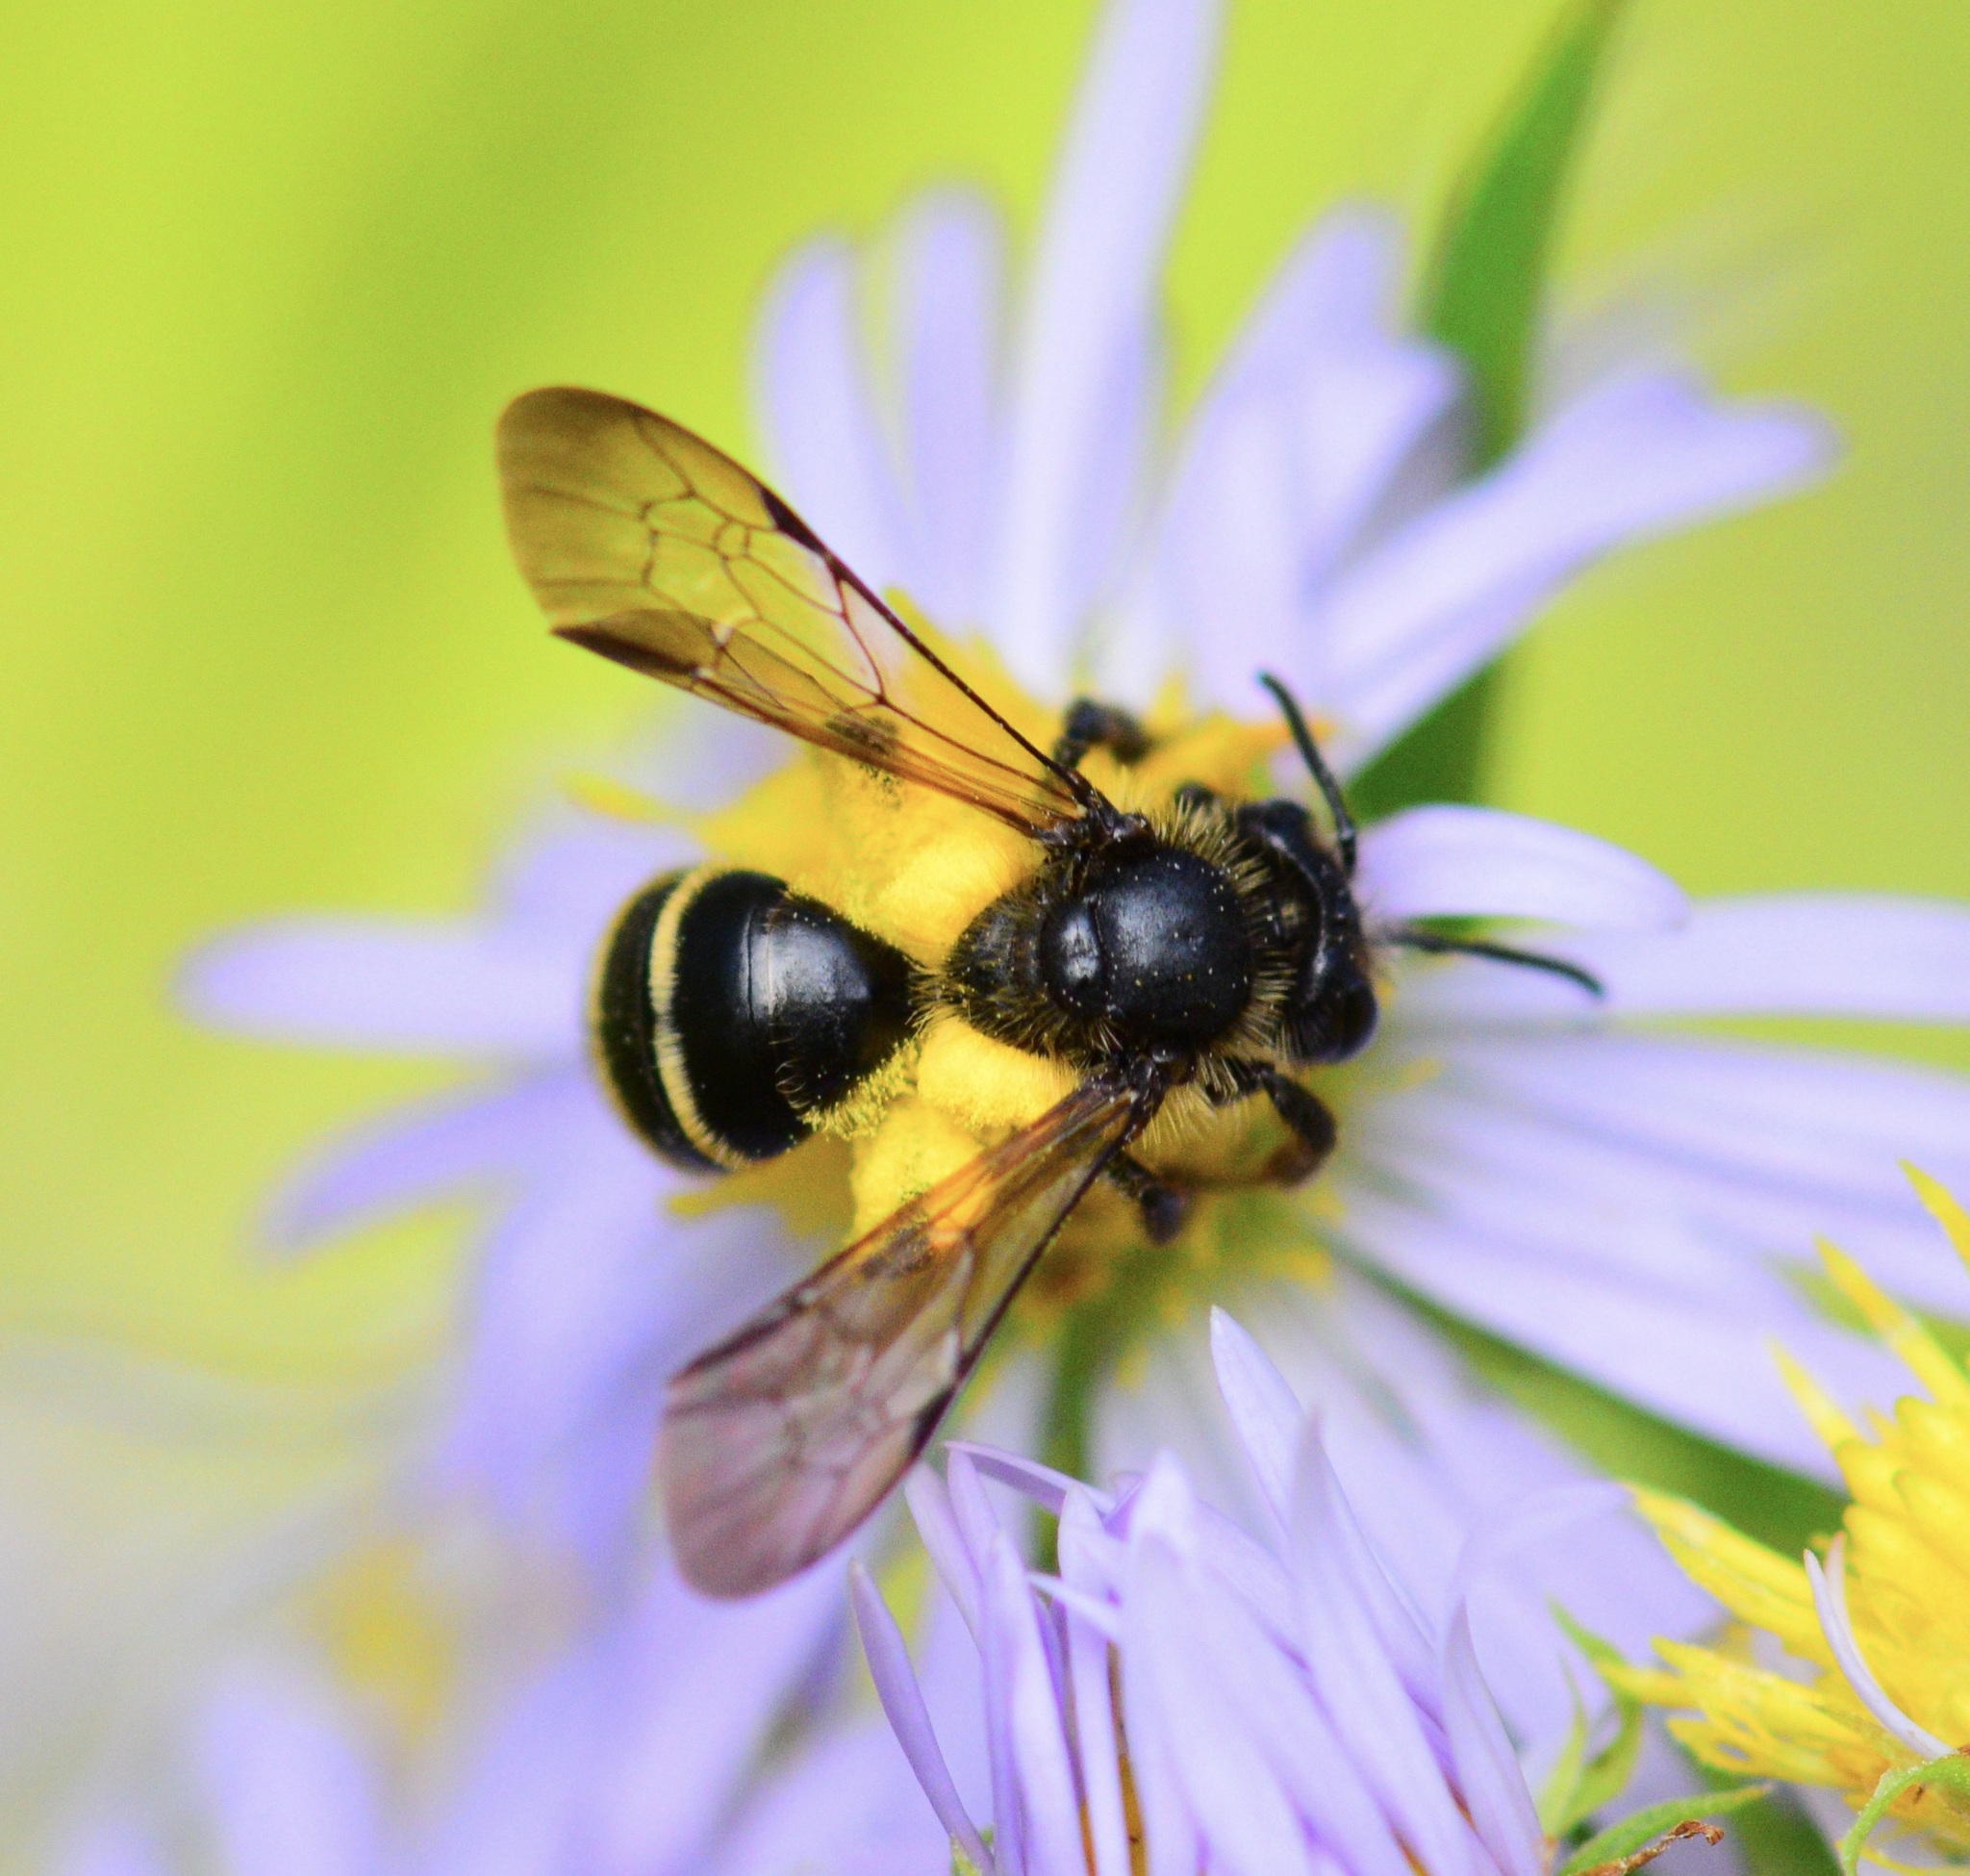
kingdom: Animalia
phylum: Arthropoda
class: Insecta
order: Hymenoptera
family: Andrenidae
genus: Andrena
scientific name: Andrena robervalensis
